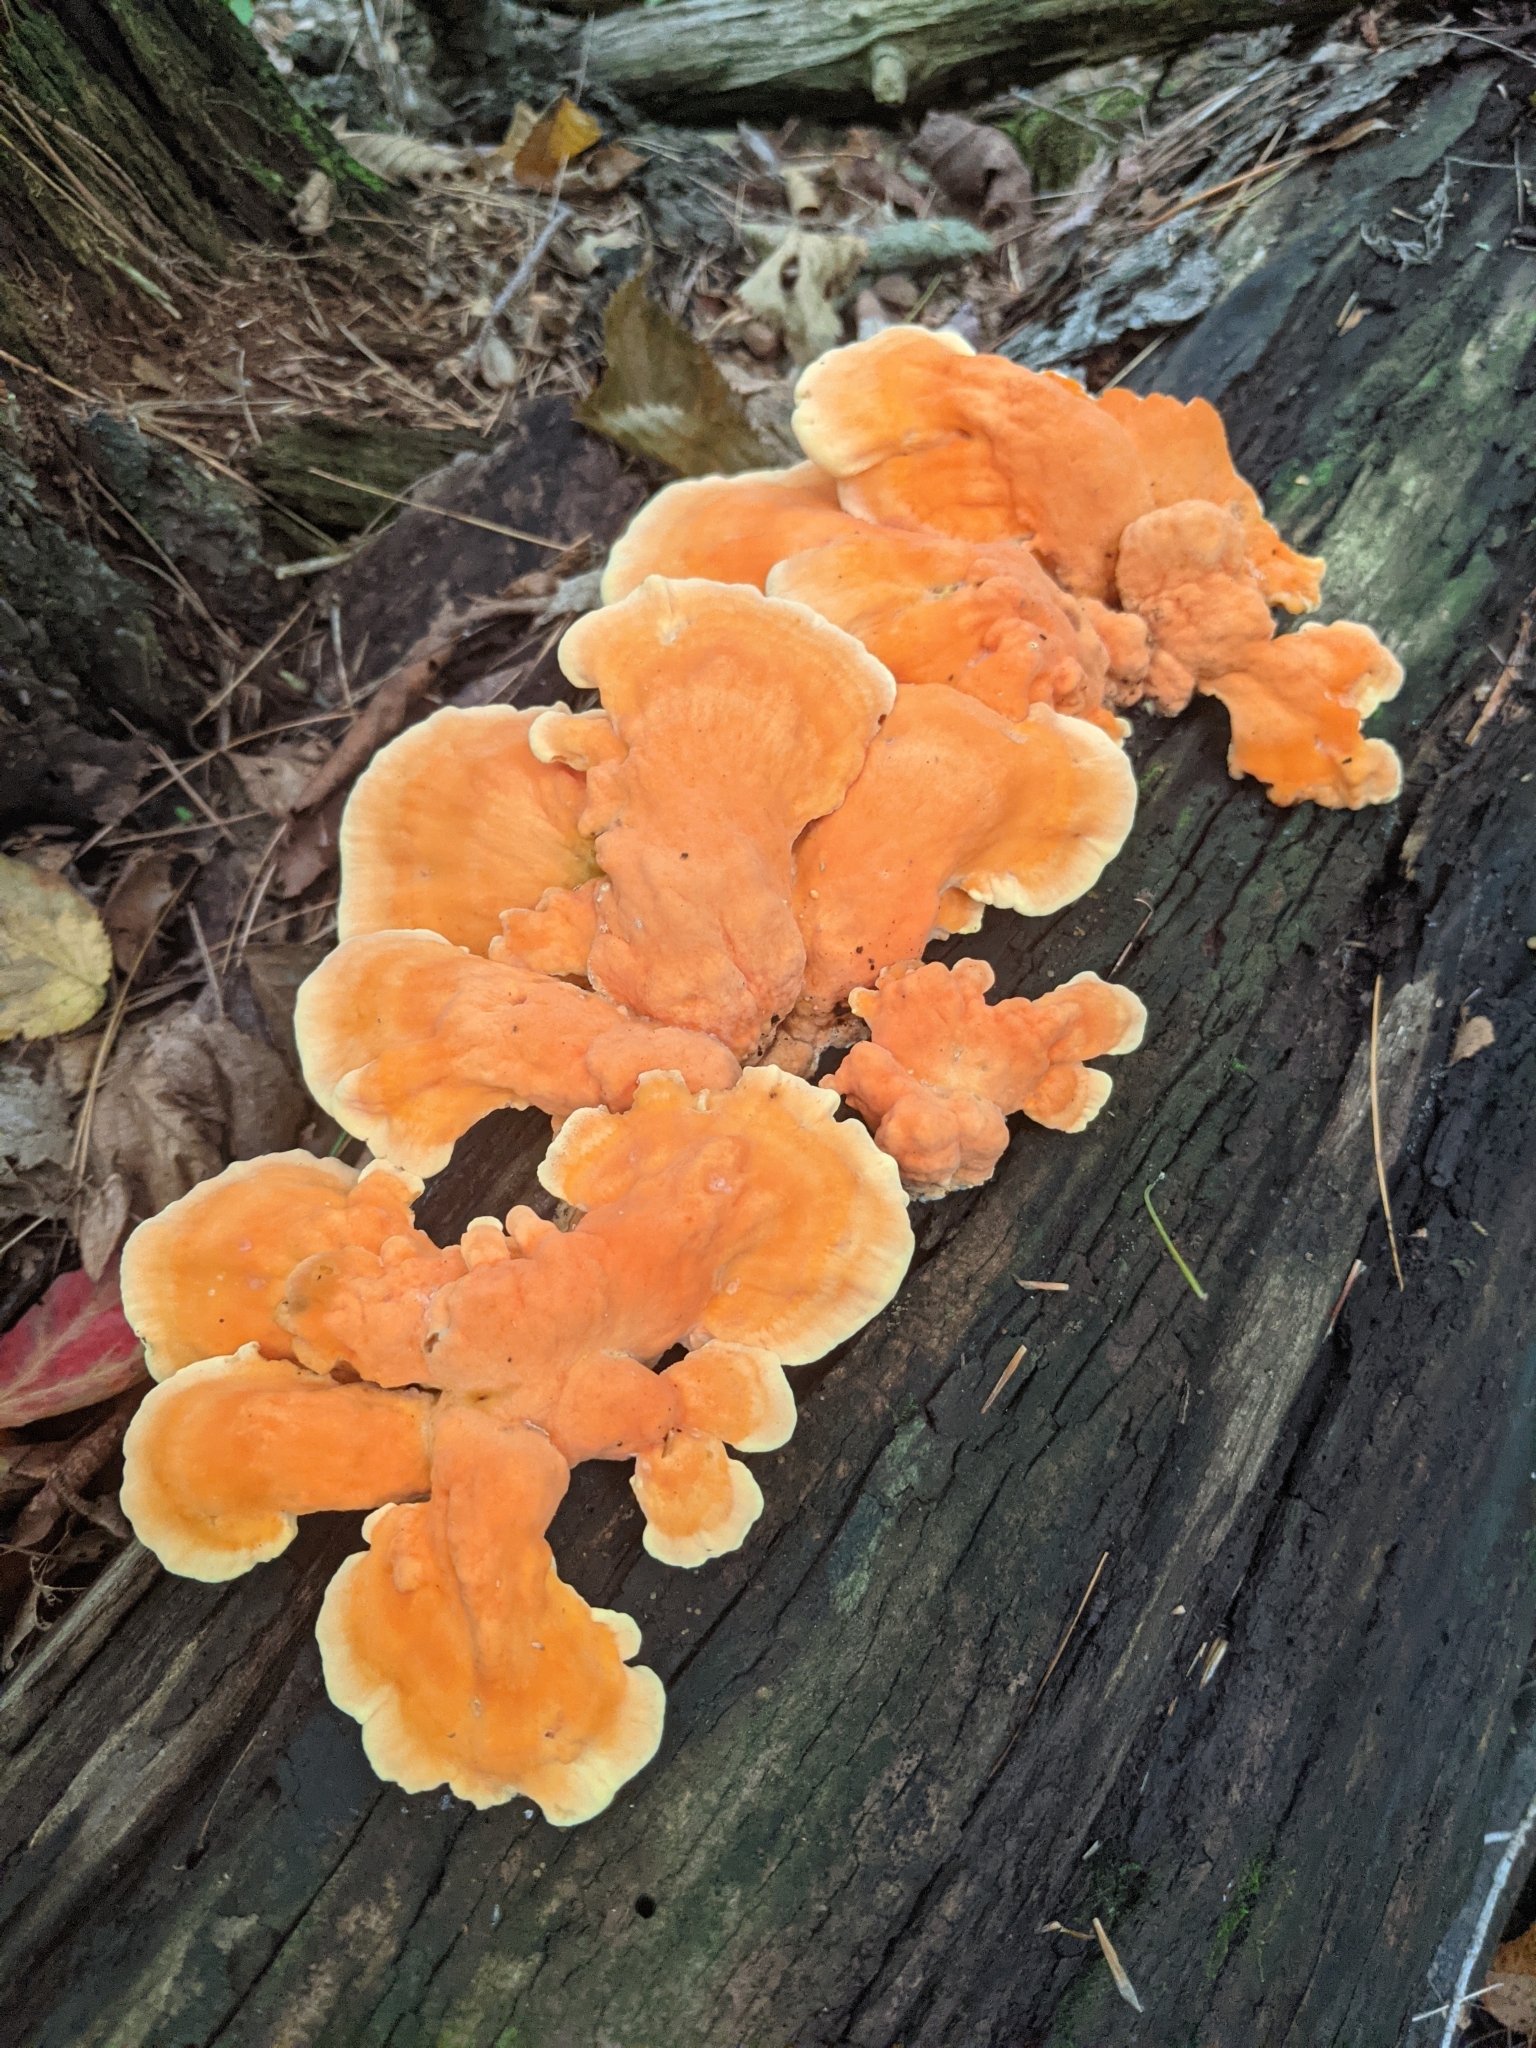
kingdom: Fungi
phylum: Basidiomycota
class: Agaricomycetes
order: Polyporales
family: Laetiporaceae
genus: Laetiporus
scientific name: Laetiporus sulphureus
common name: Chicken of the woods
